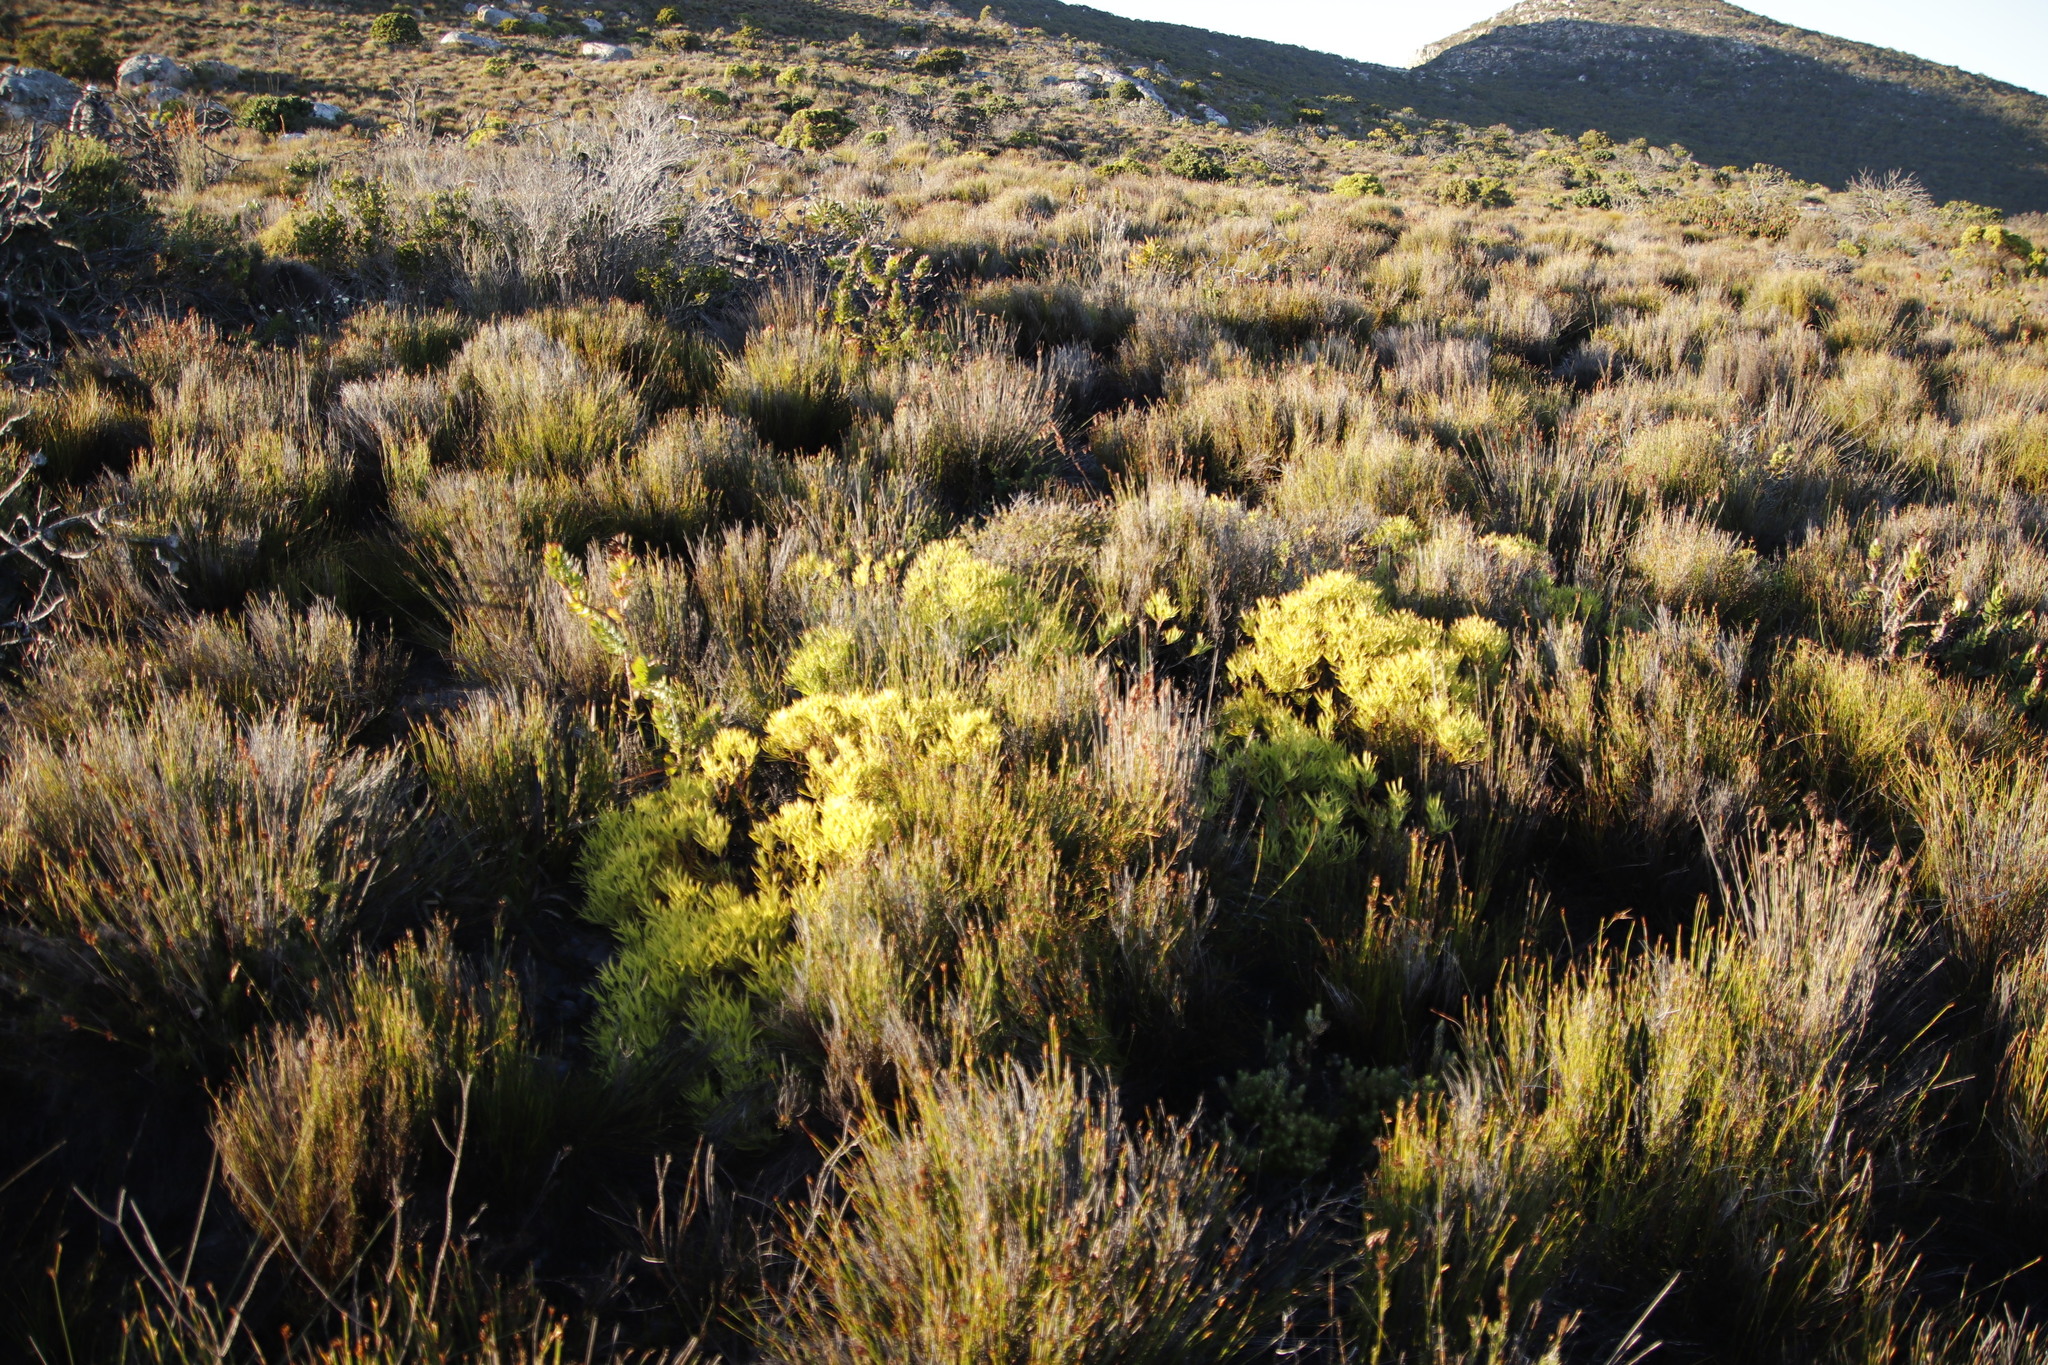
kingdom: Plantae
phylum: Tracheophyta
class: Magnoliopsida
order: Proteales
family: Proteaceae
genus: Leucadendron
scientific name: Leucadendron salignum
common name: Common sunshine conebush
